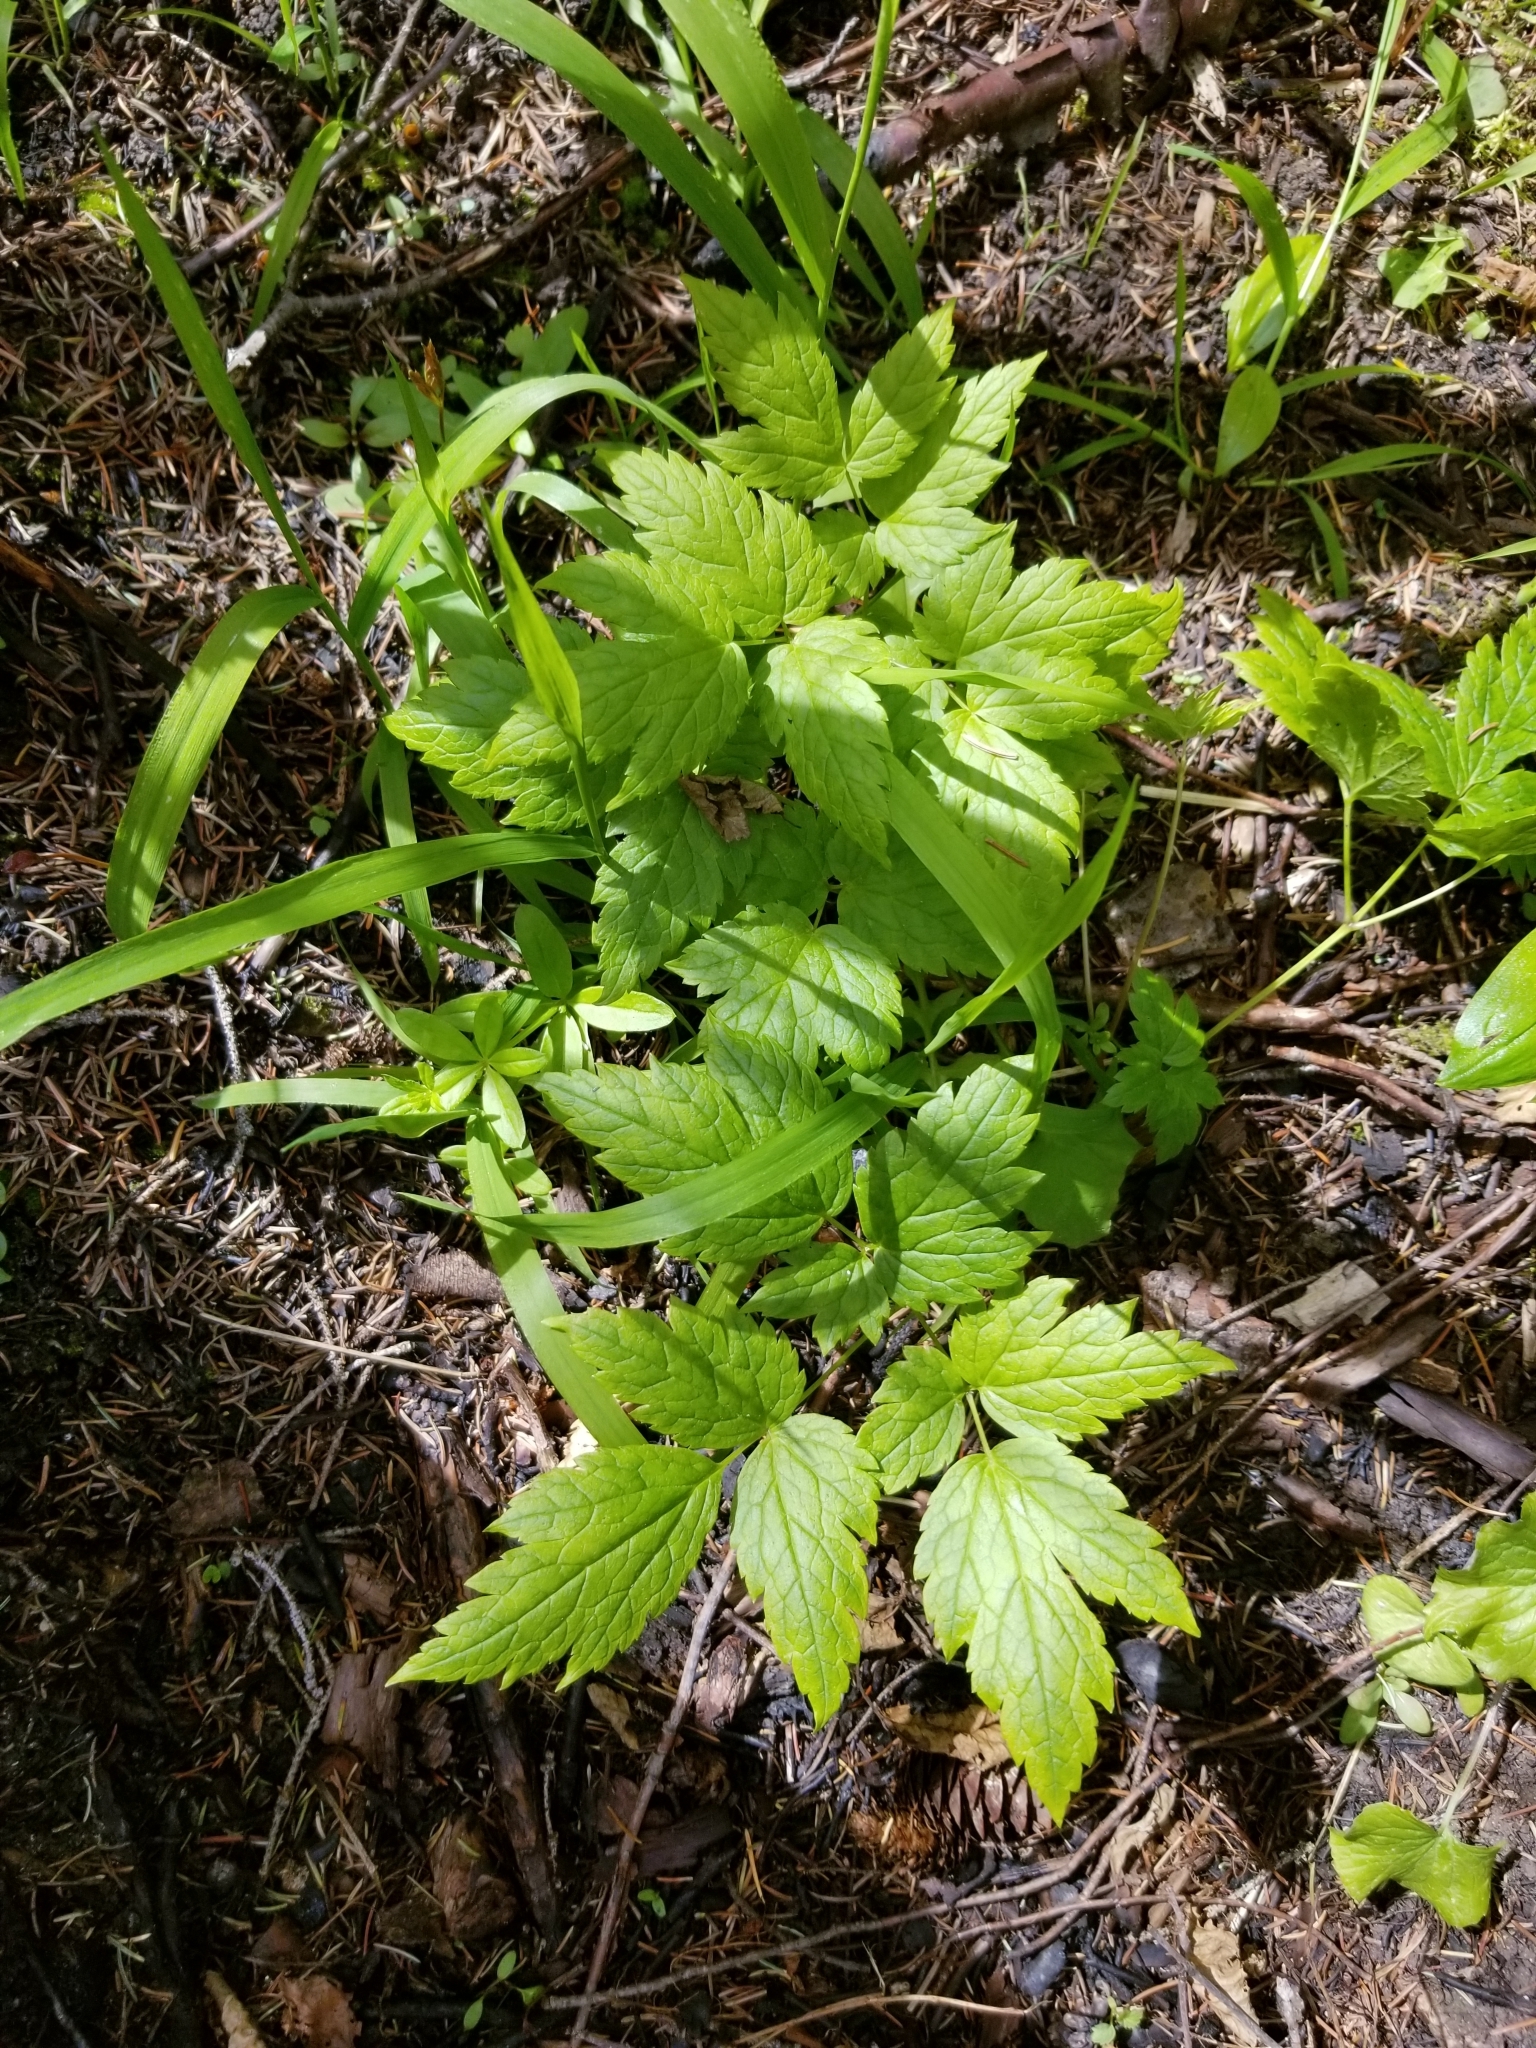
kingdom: Plantae
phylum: Tracheophyta
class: Magnoliopsida
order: Ranunculales
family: Ranunculaceae
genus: Actaea
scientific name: Actaea rubra
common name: Red baneberry
